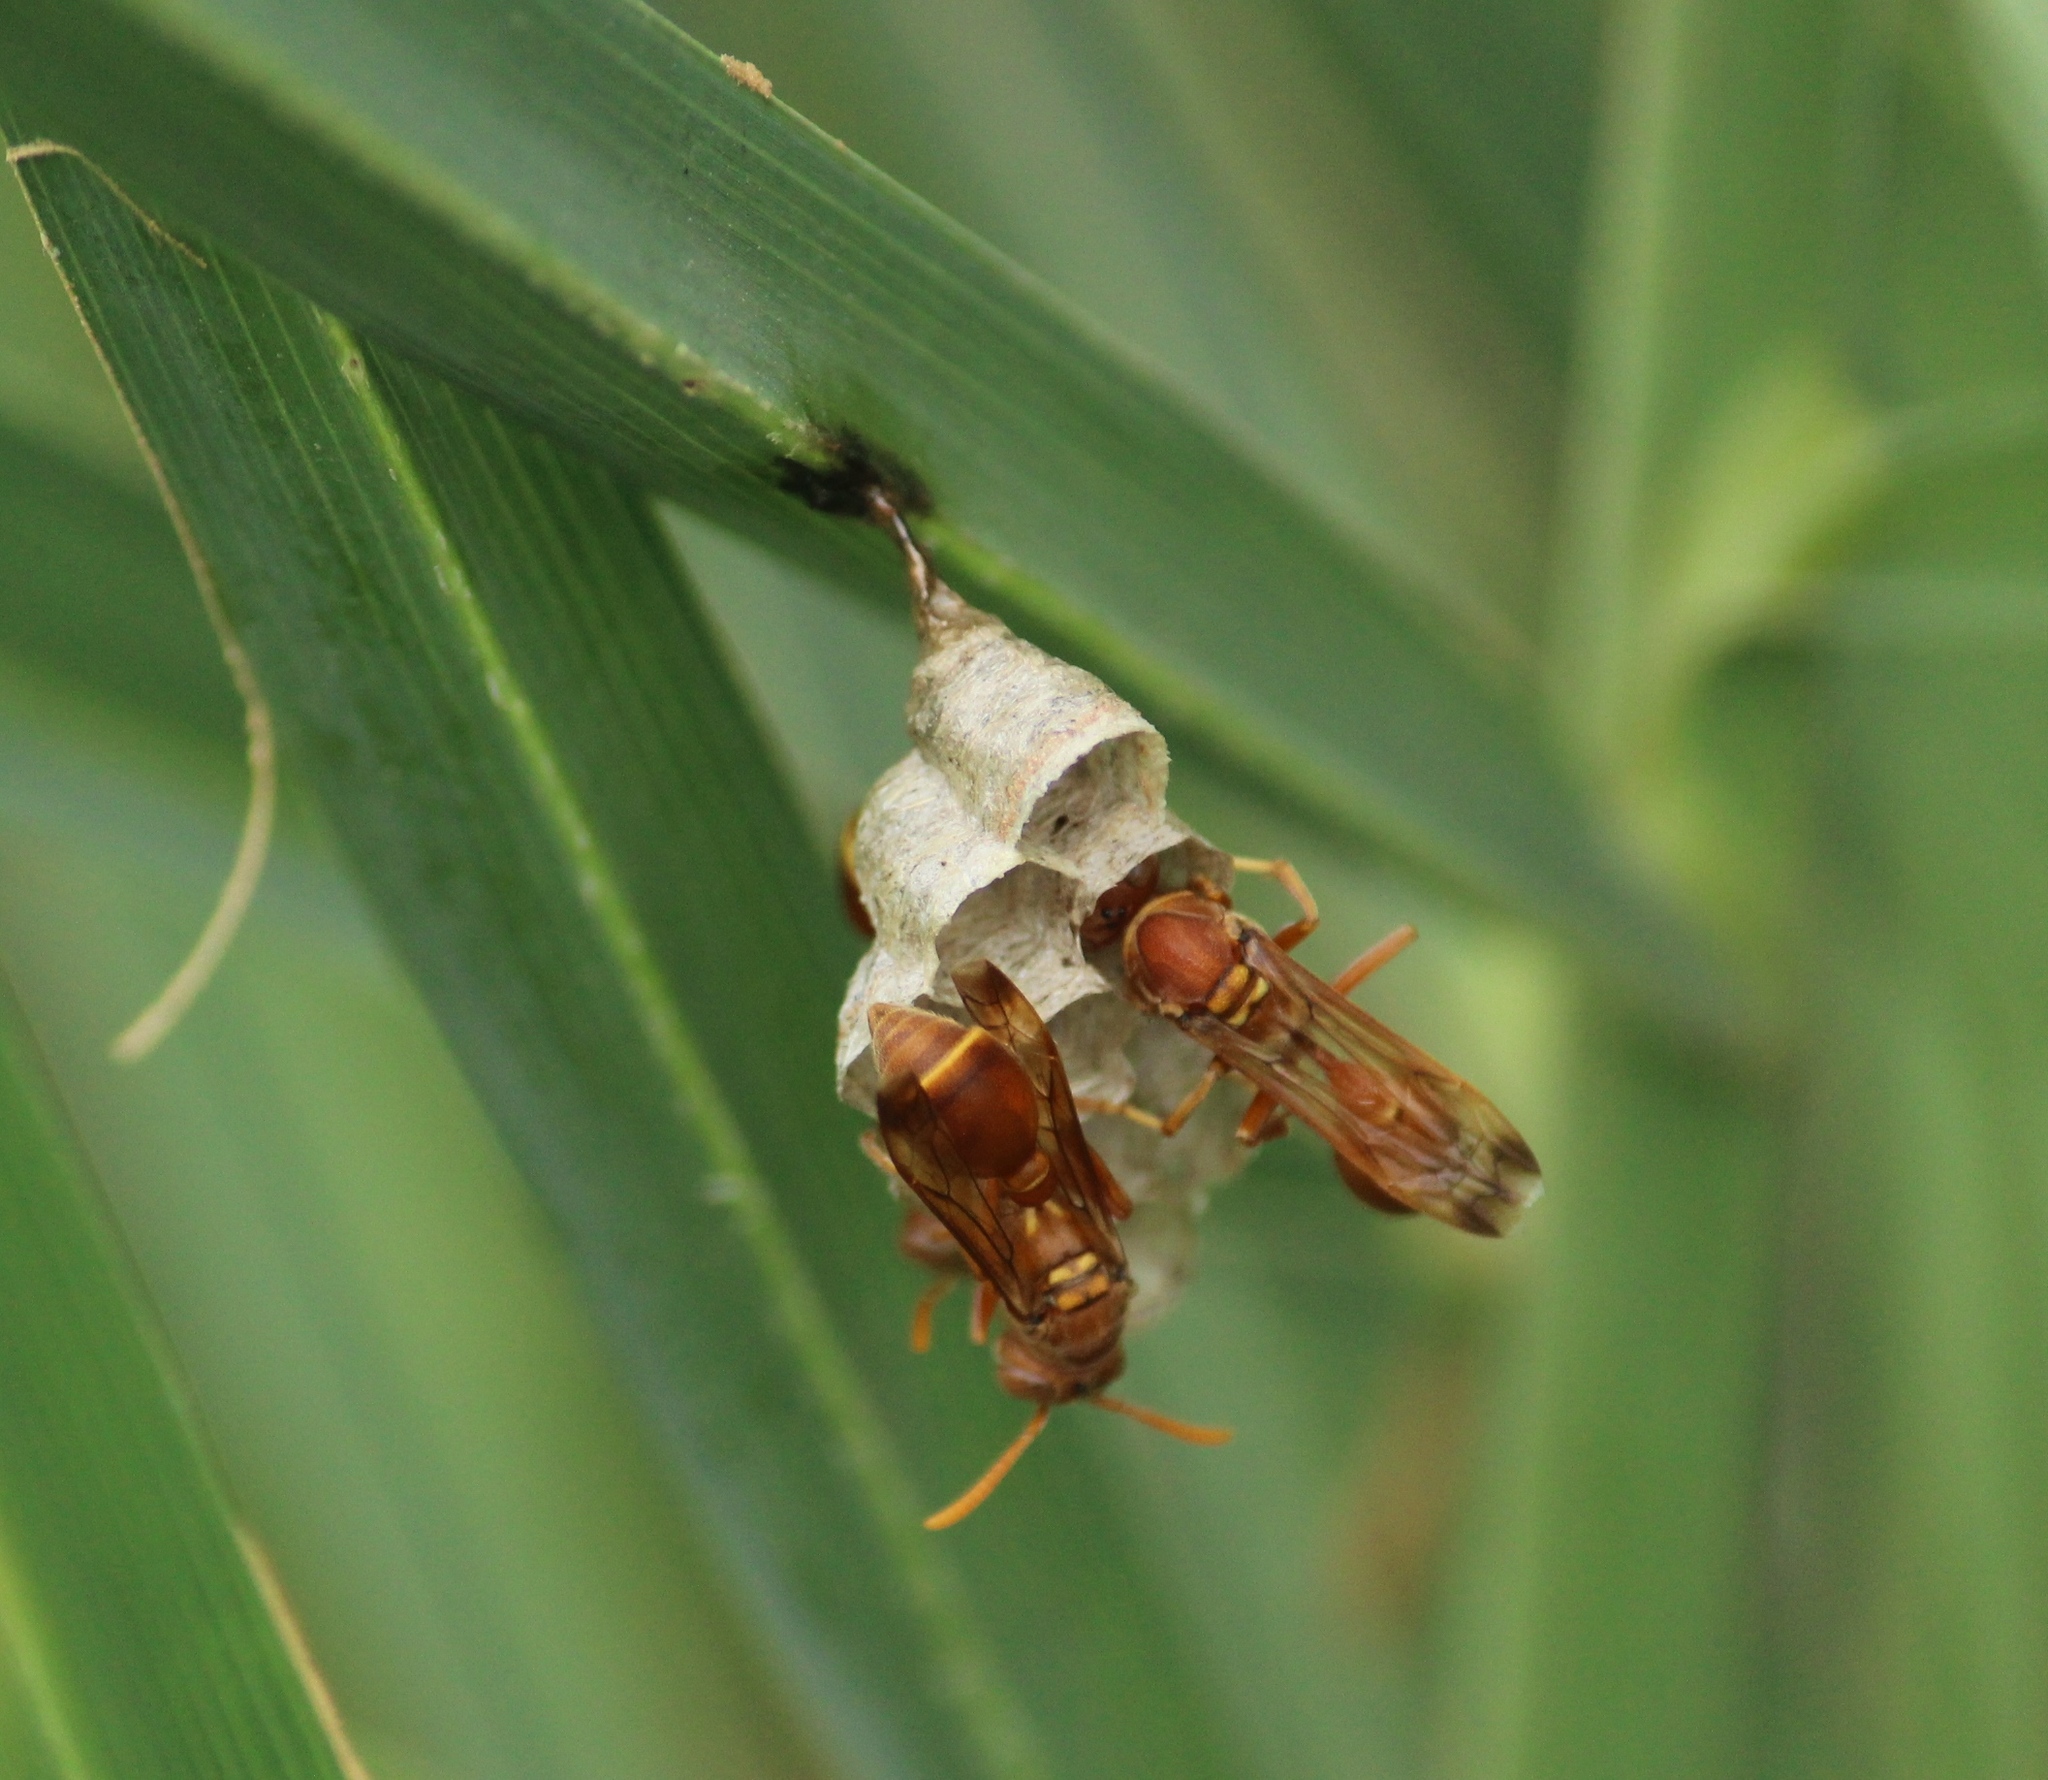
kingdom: Animalia
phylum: Arthropoda
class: Insecta
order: Hymenoptera
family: Vespidae
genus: Ropalidia
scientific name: Ropalidia marginata
